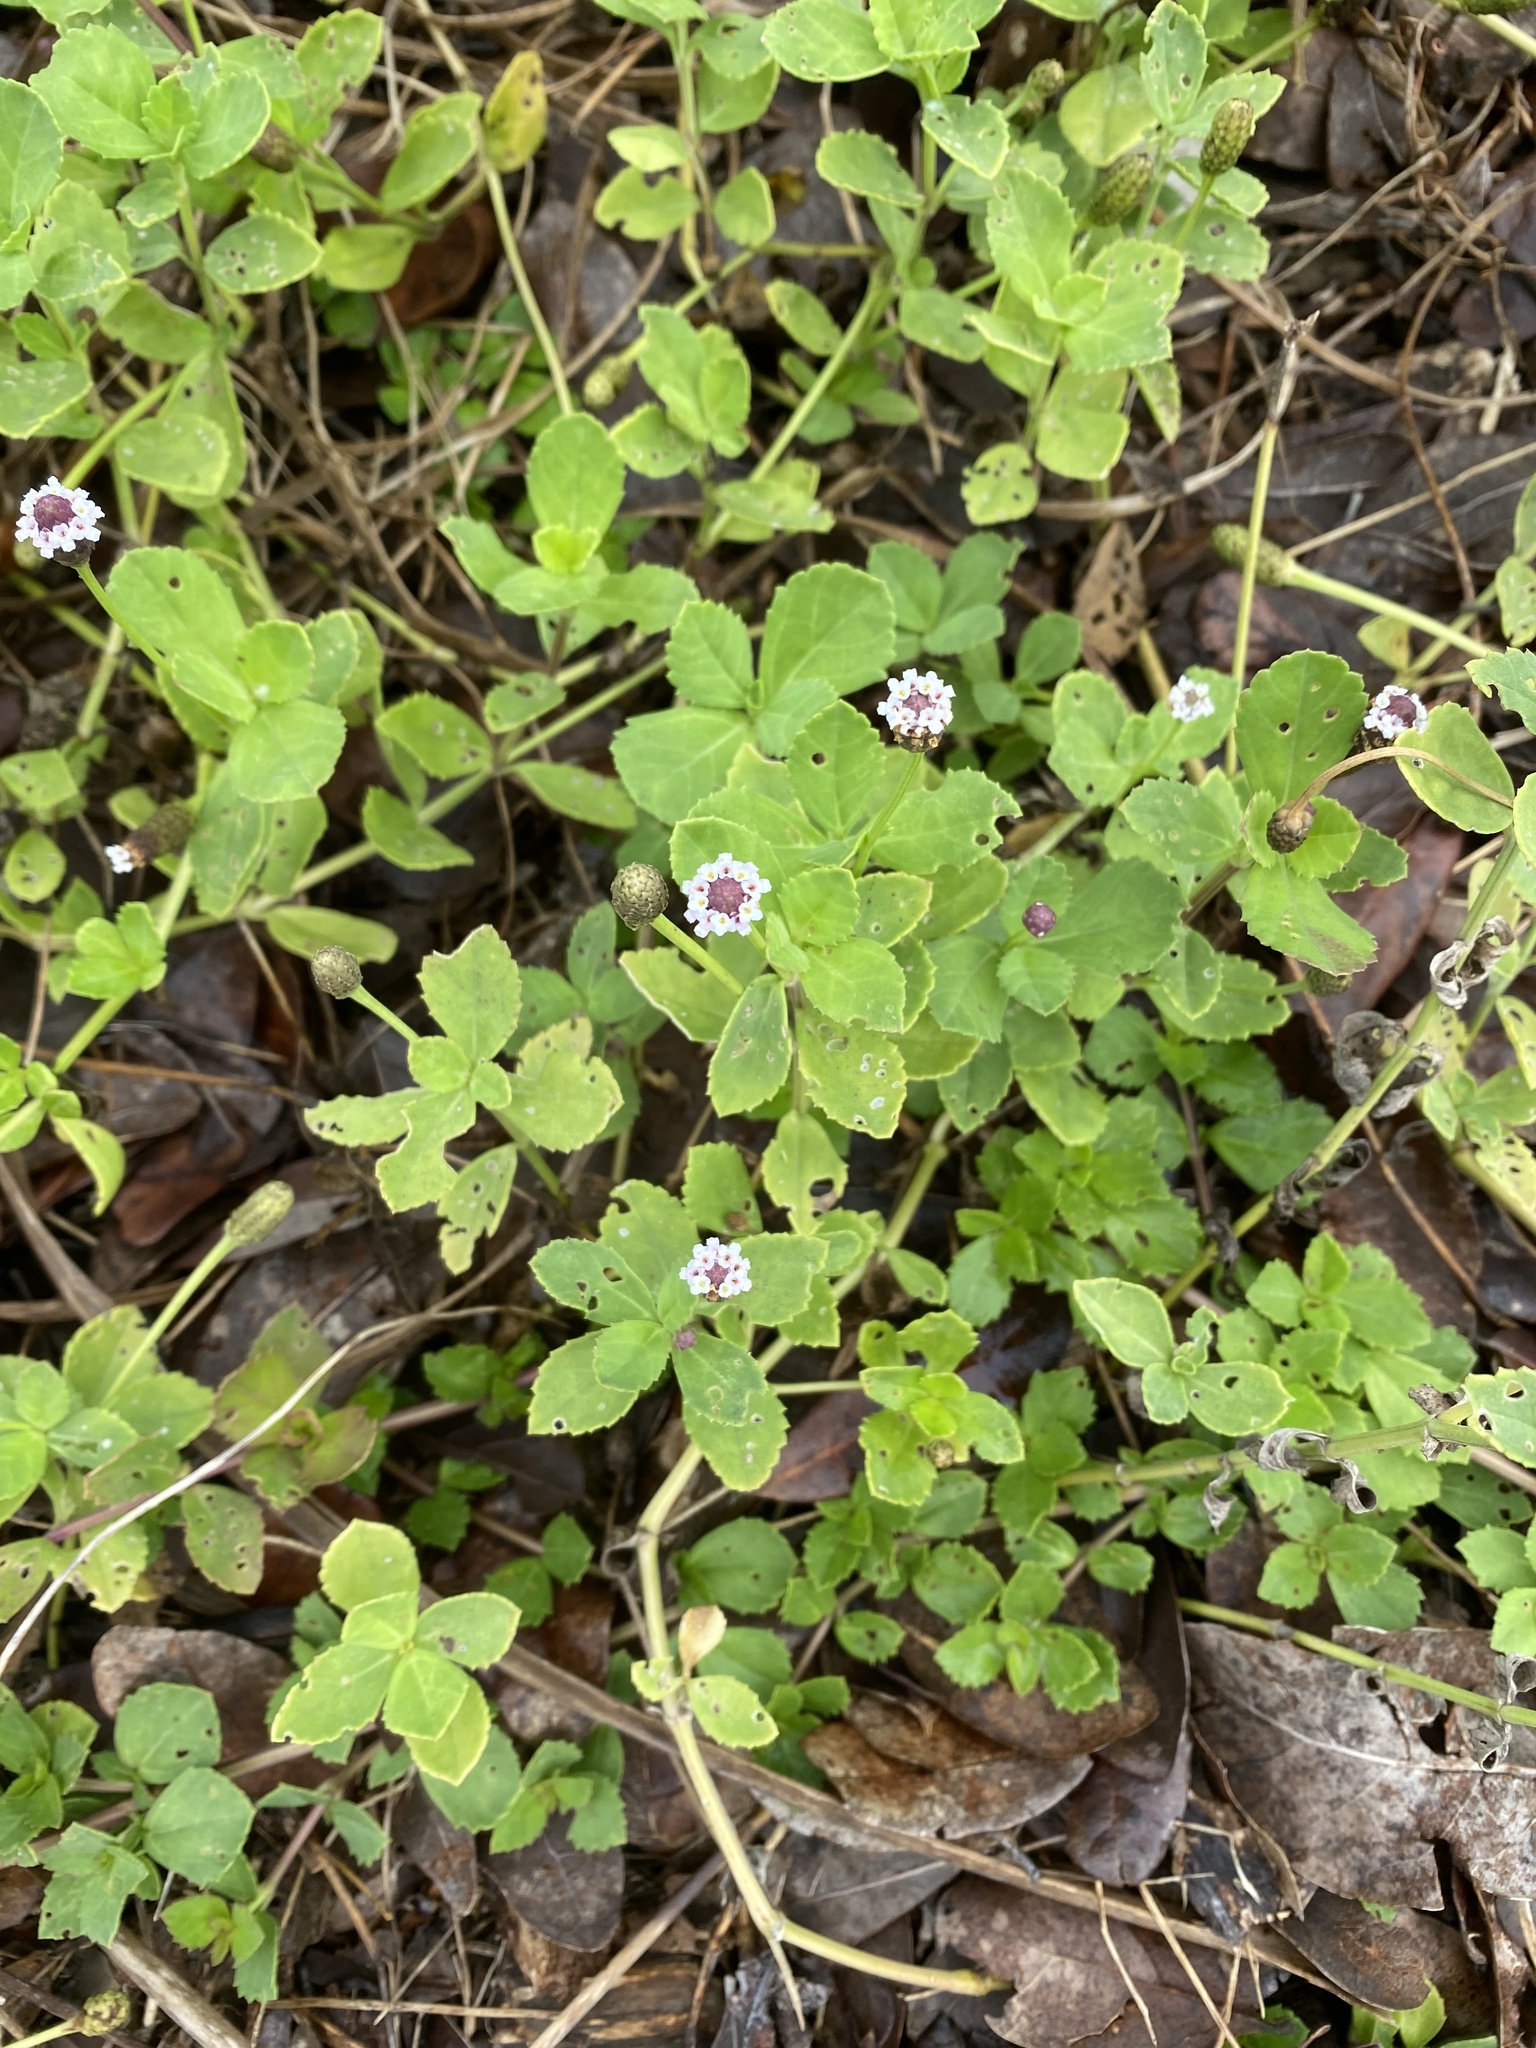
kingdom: Plantae
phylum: Tracheophyta
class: Magnoliopsida
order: Lamiales
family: Verbenaceae
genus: Phyla
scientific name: Phyla nodiflora
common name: Frogfruit
